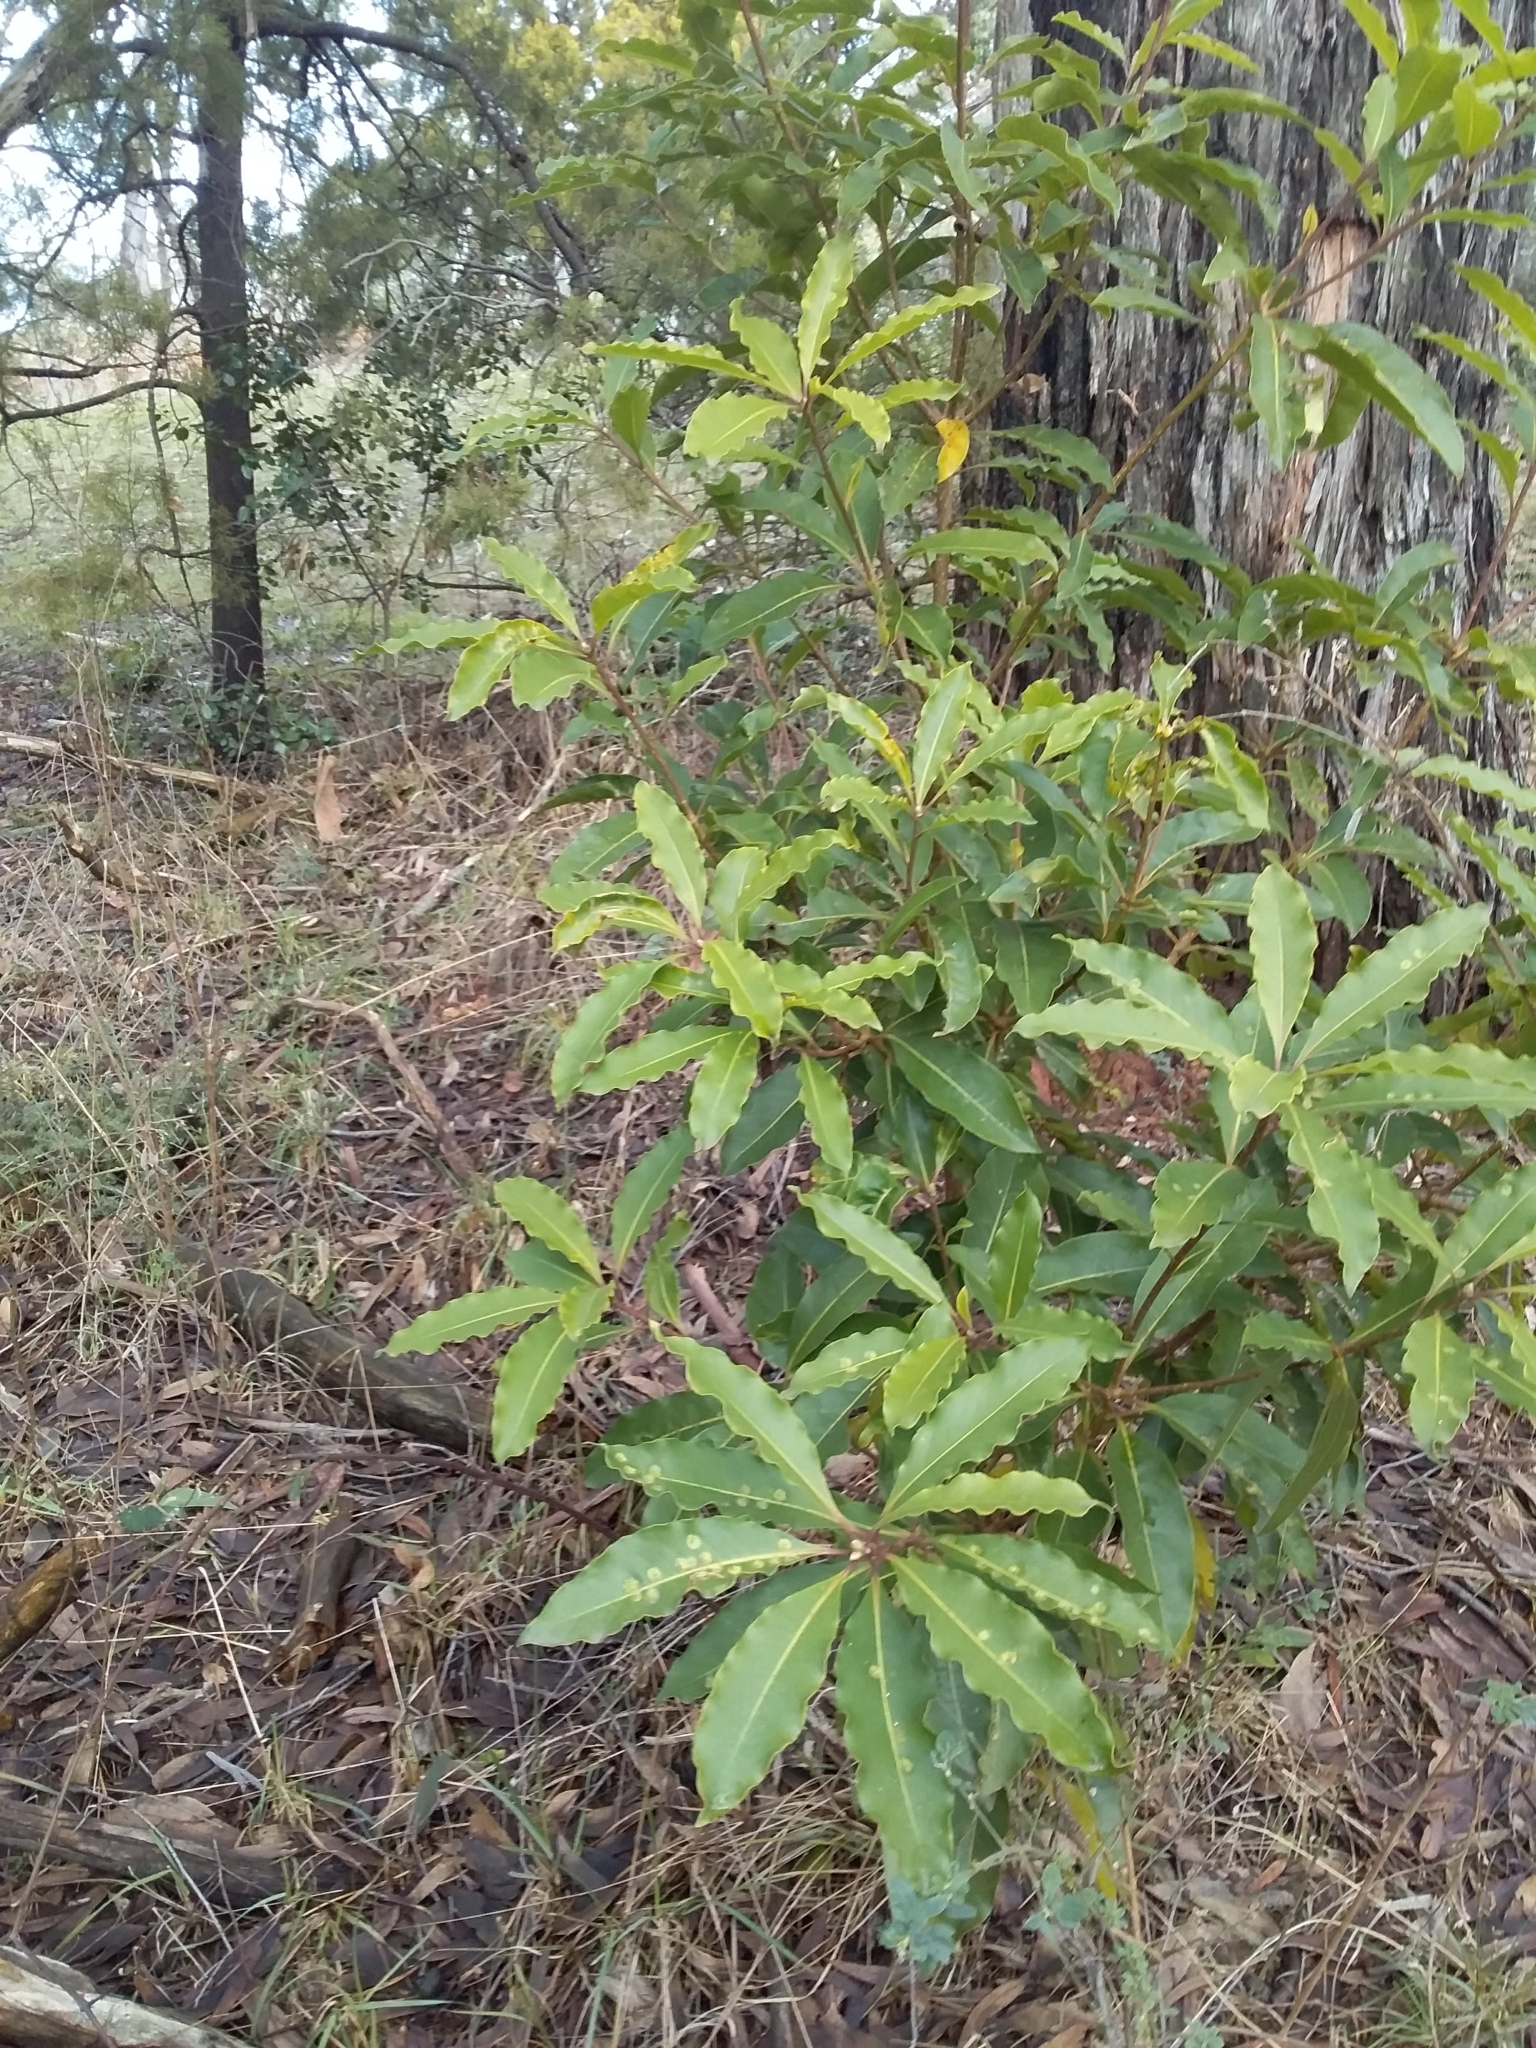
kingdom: Plantae
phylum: Tracheophyta
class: Magnoliopsida
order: Apiales
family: Pittosporaceae
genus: Pittosporum
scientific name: Pittosporum undulatum
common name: Australian cheesewood
